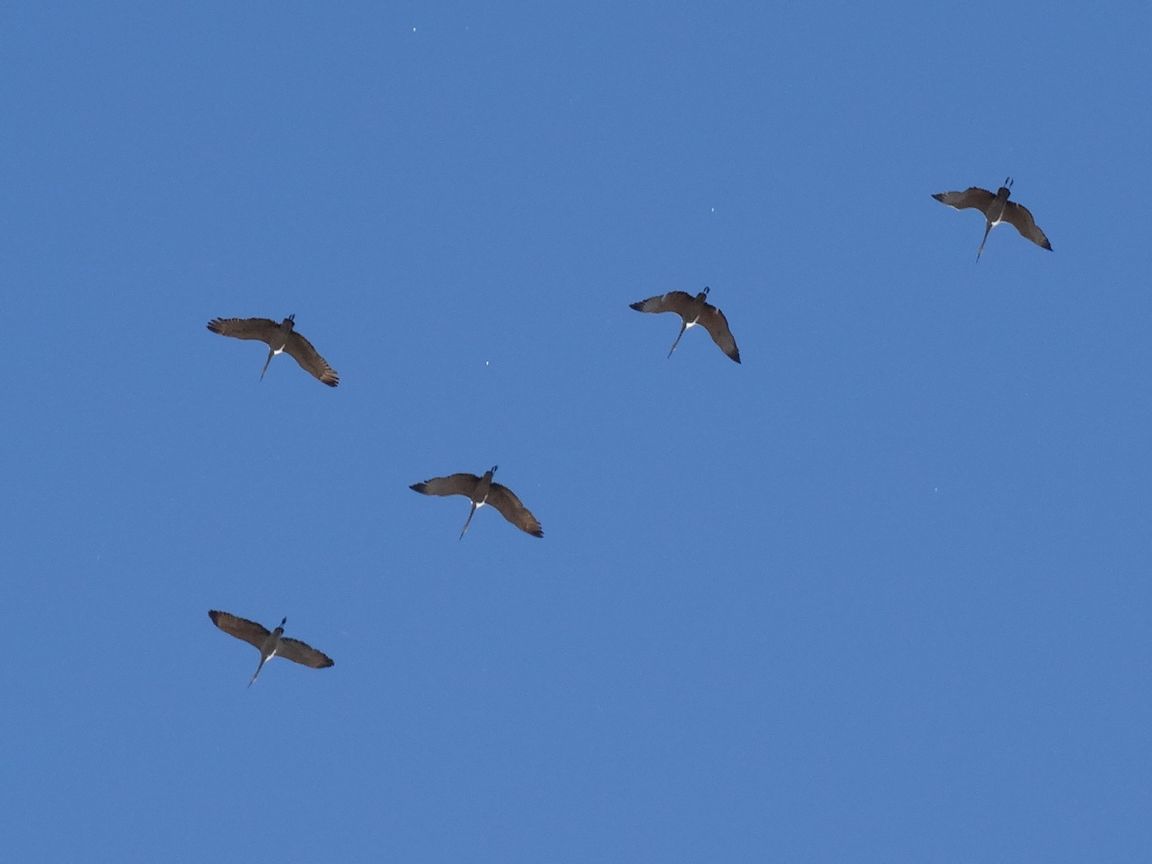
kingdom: Animalia
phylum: Chordata
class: Aves
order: Gruiformes
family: Gruidae
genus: Grus
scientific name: Grus canadensis
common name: Sandhill crane
